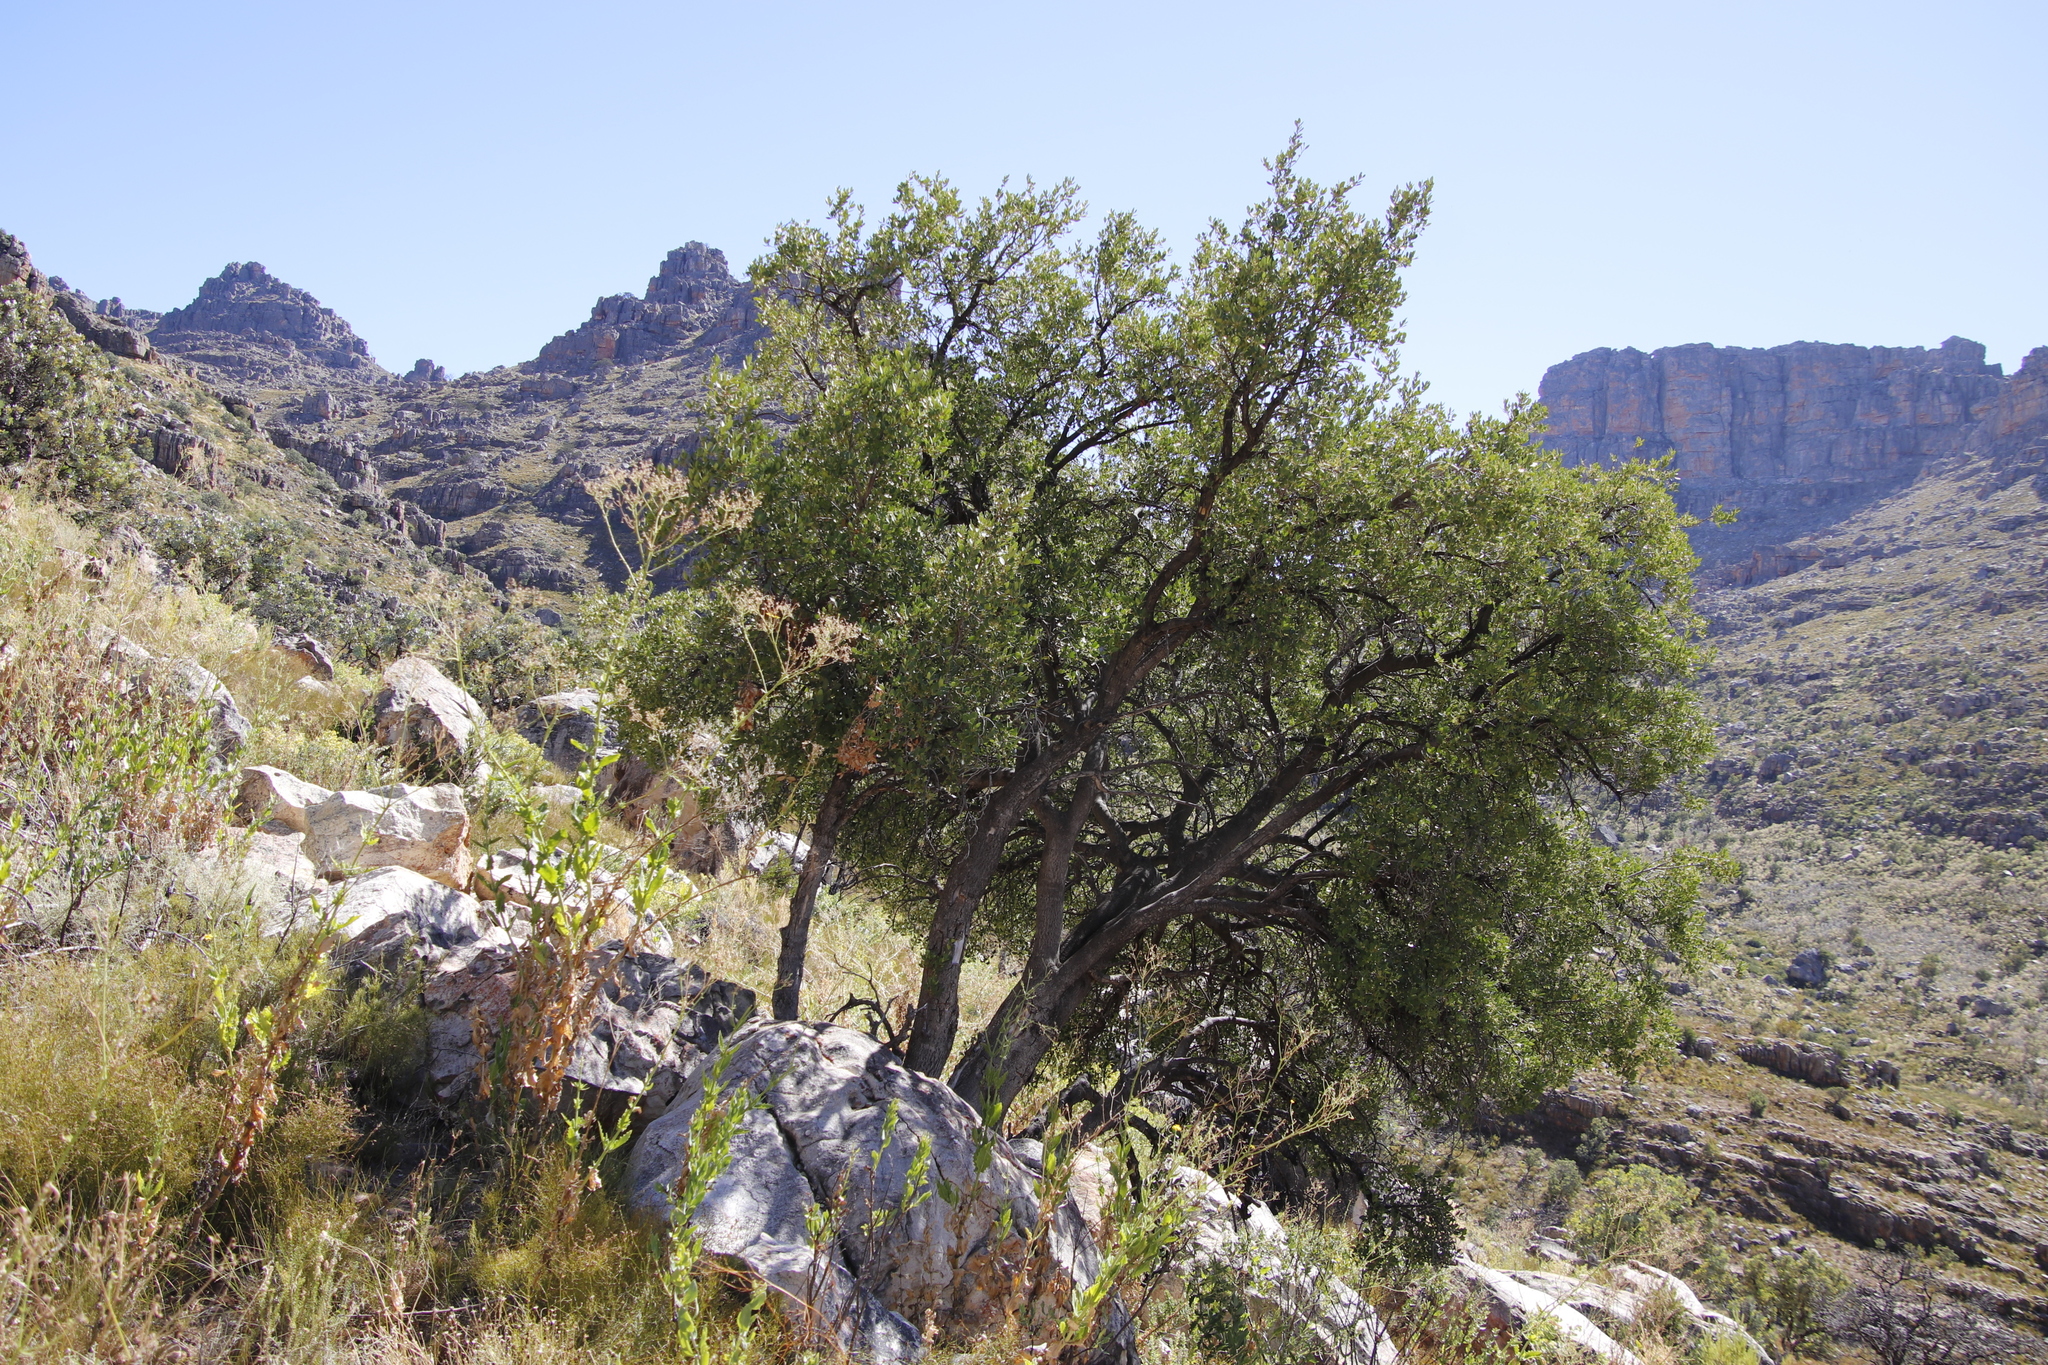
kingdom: Plantae
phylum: Tracheophyta
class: Magnoliopsida
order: Asterales
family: Asteraceae
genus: Othonna
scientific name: Othonna parviflora
